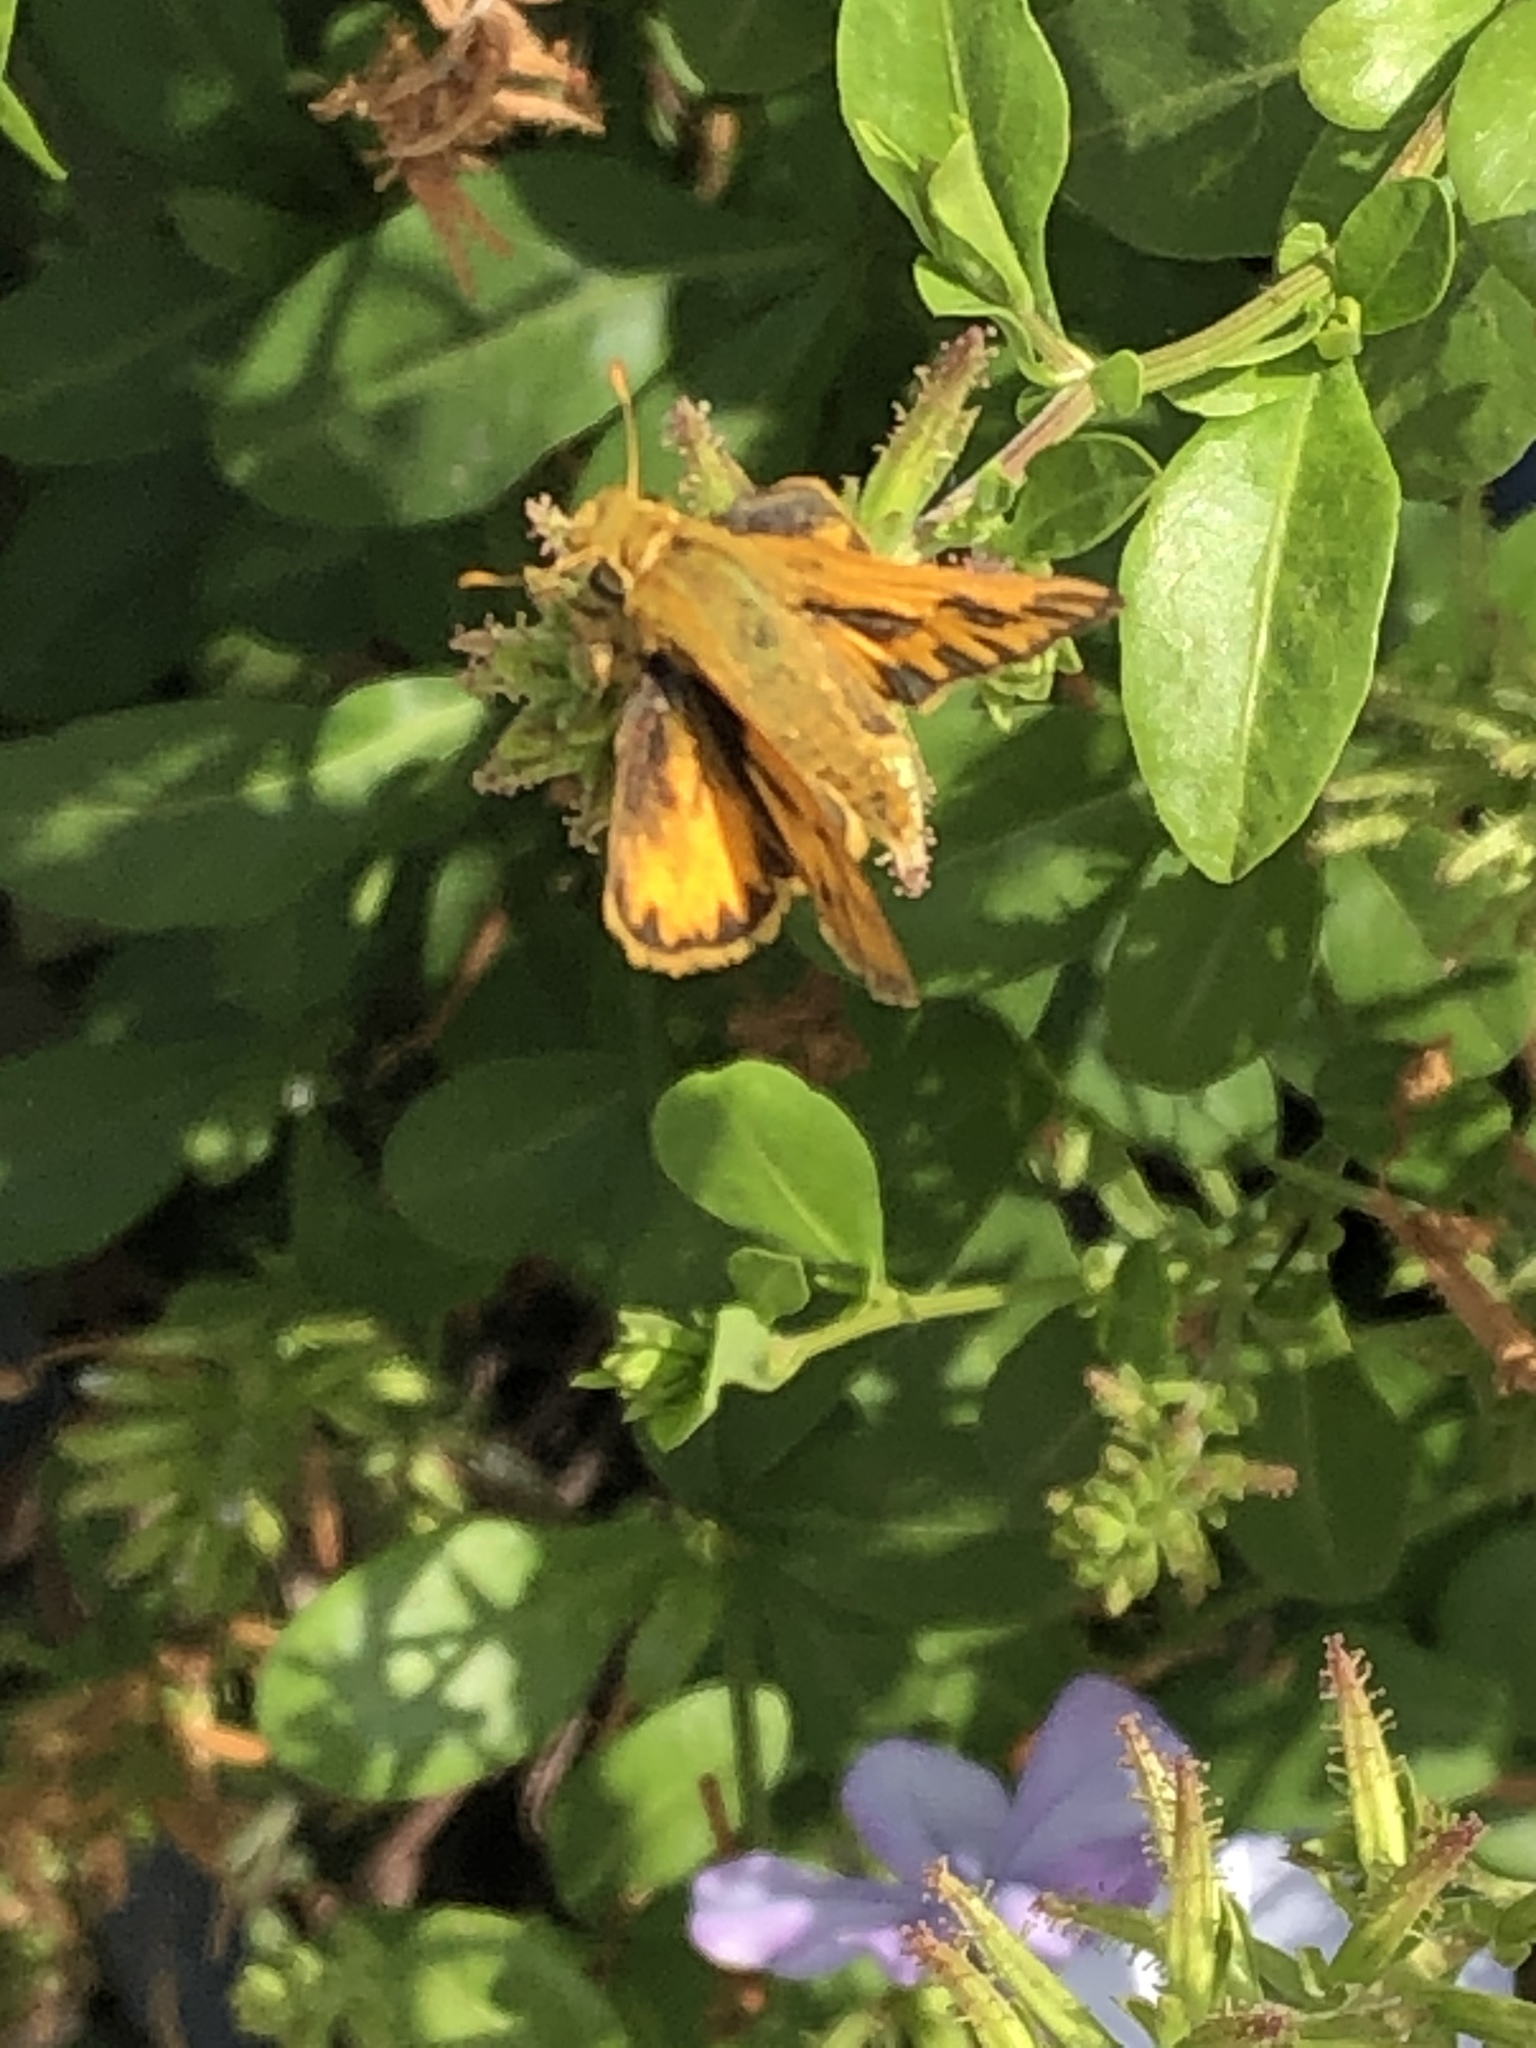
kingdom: Animalia
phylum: Arthropoda
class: Insecta
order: Lepidoptera
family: Hesperiidae
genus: Hylephila
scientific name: Hylephila phyleus
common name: Fiery skipper
